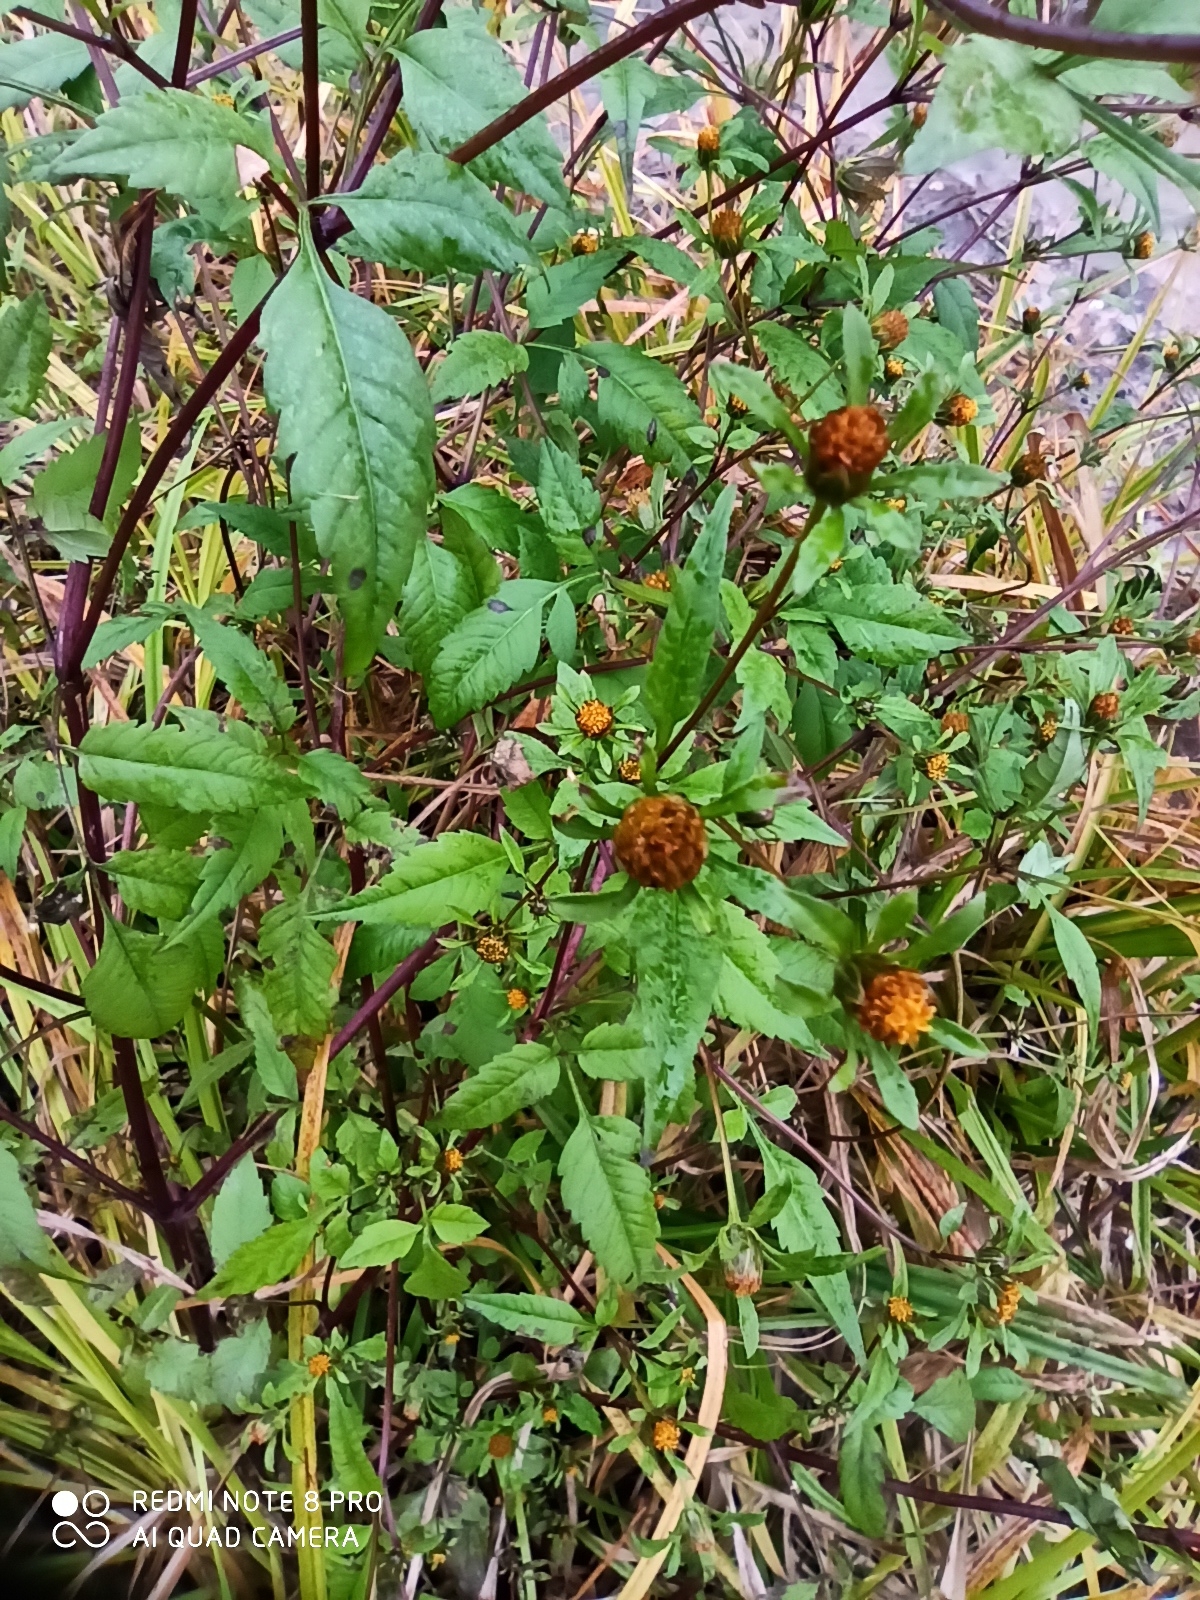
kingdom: Plantae
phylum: Tracheophyta
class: Magnoliopsida
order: Asterales
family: Asteraceae
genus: Bidens
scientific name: Bidens tripartita
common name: Trifid bur-marigold
